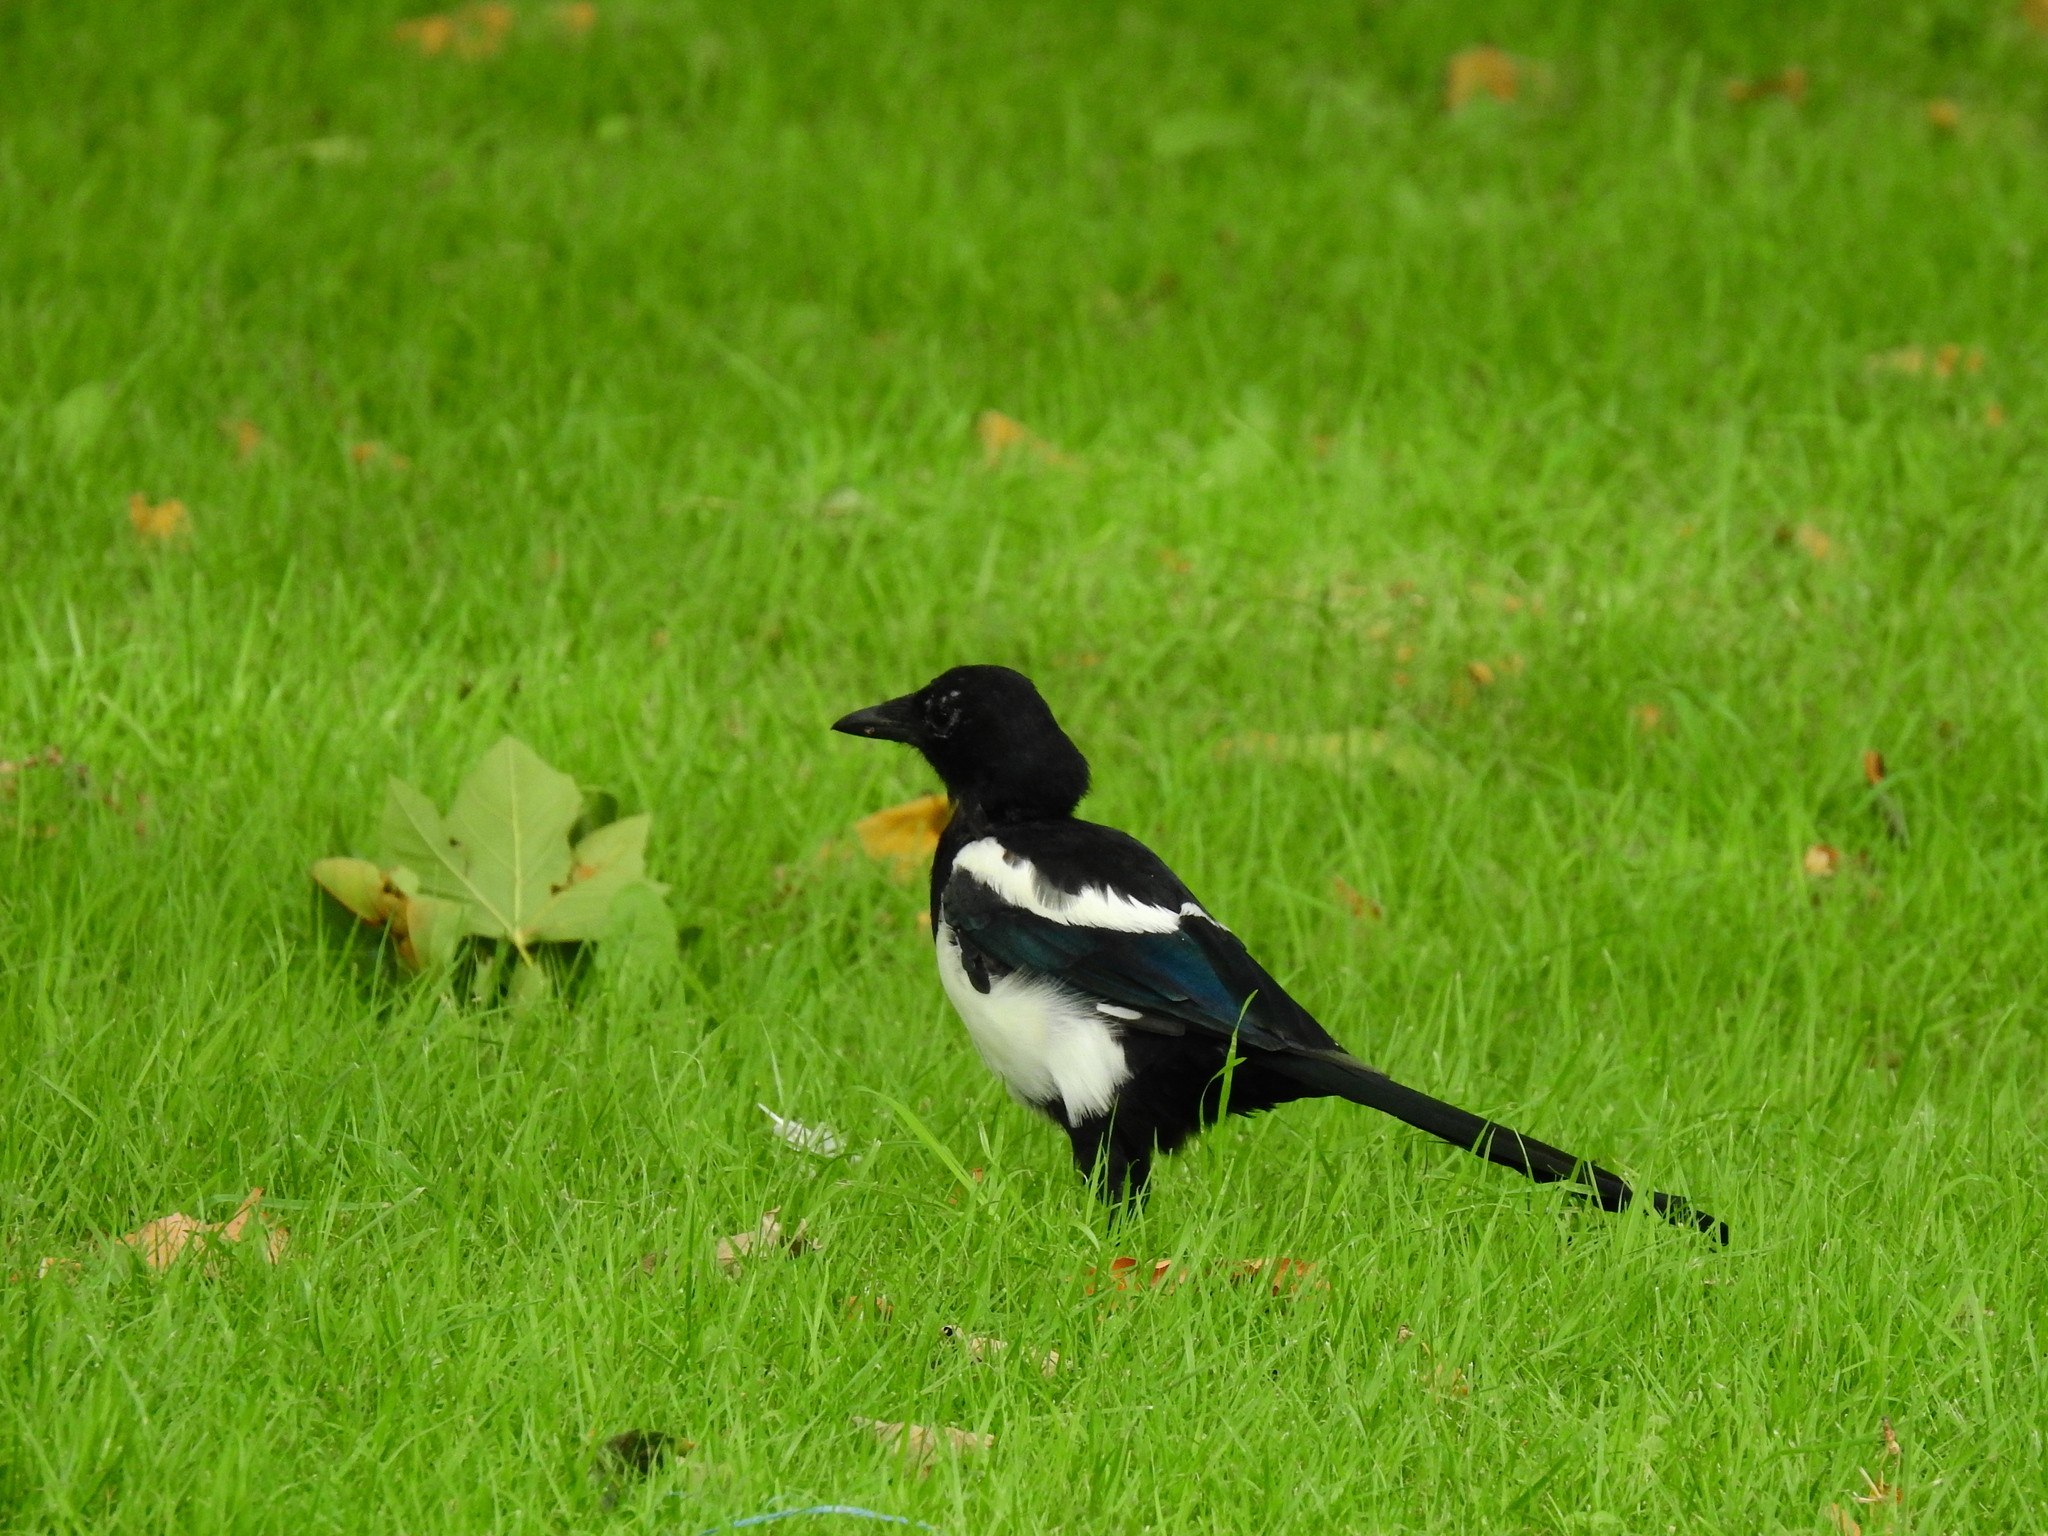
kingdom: Animalia
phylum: Chordata
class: Aves
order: Passeriformes
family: Corvidae
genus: Pica
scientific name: Pica pica
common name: Eurasian magpie
